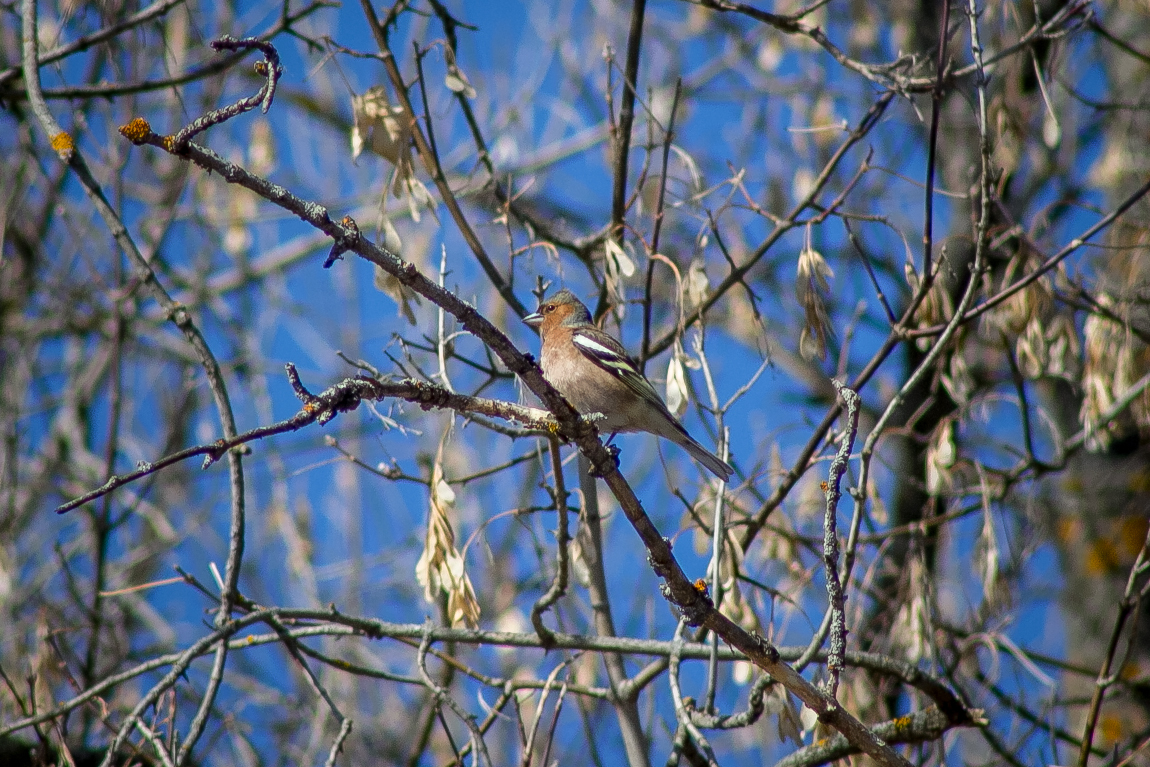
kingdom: Animalia
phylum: Chordata
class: Aves
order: Passeriformes
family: Fringillidae
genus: Fringilla
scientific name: Fringilla coelebs
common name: Common chaffinch
